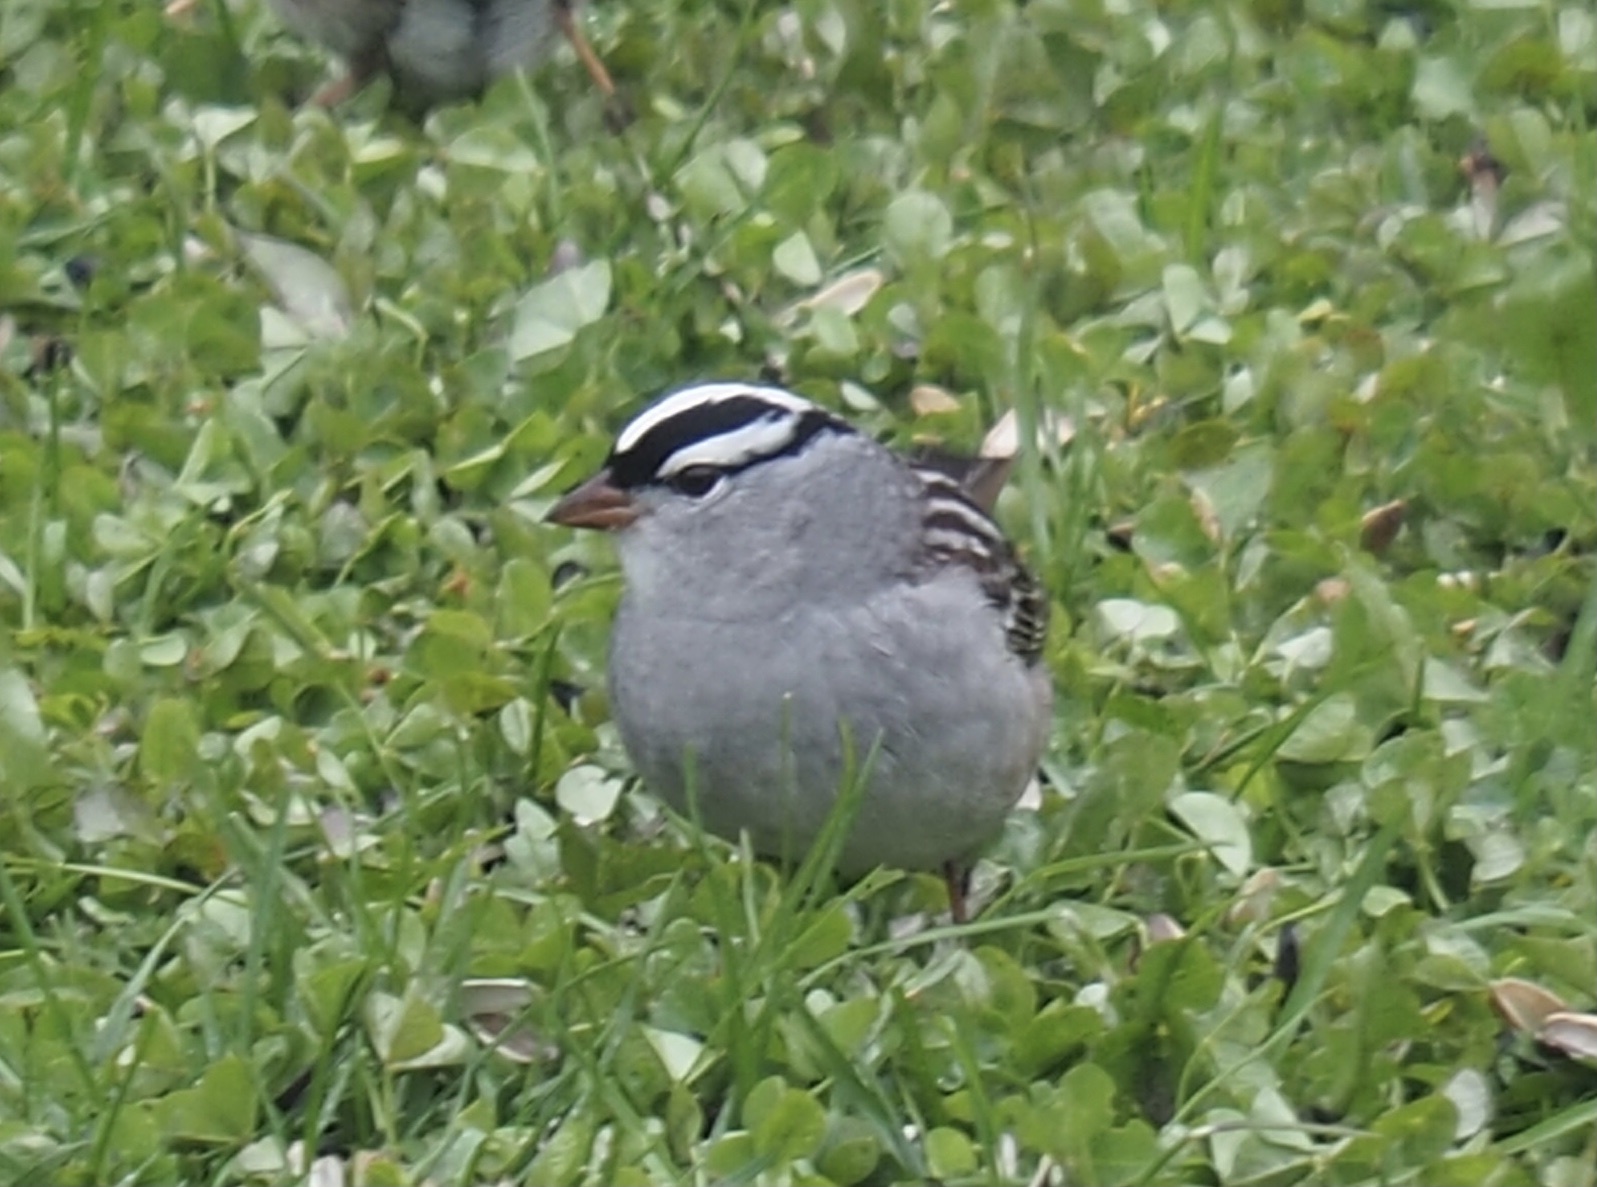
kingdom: Animalia
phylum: Chordata
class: Aves
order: Passeriformes
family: Passerellidae
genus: Zonotrichia
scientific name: Zonotrichia leucophrys
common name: White-crowned sparrow
